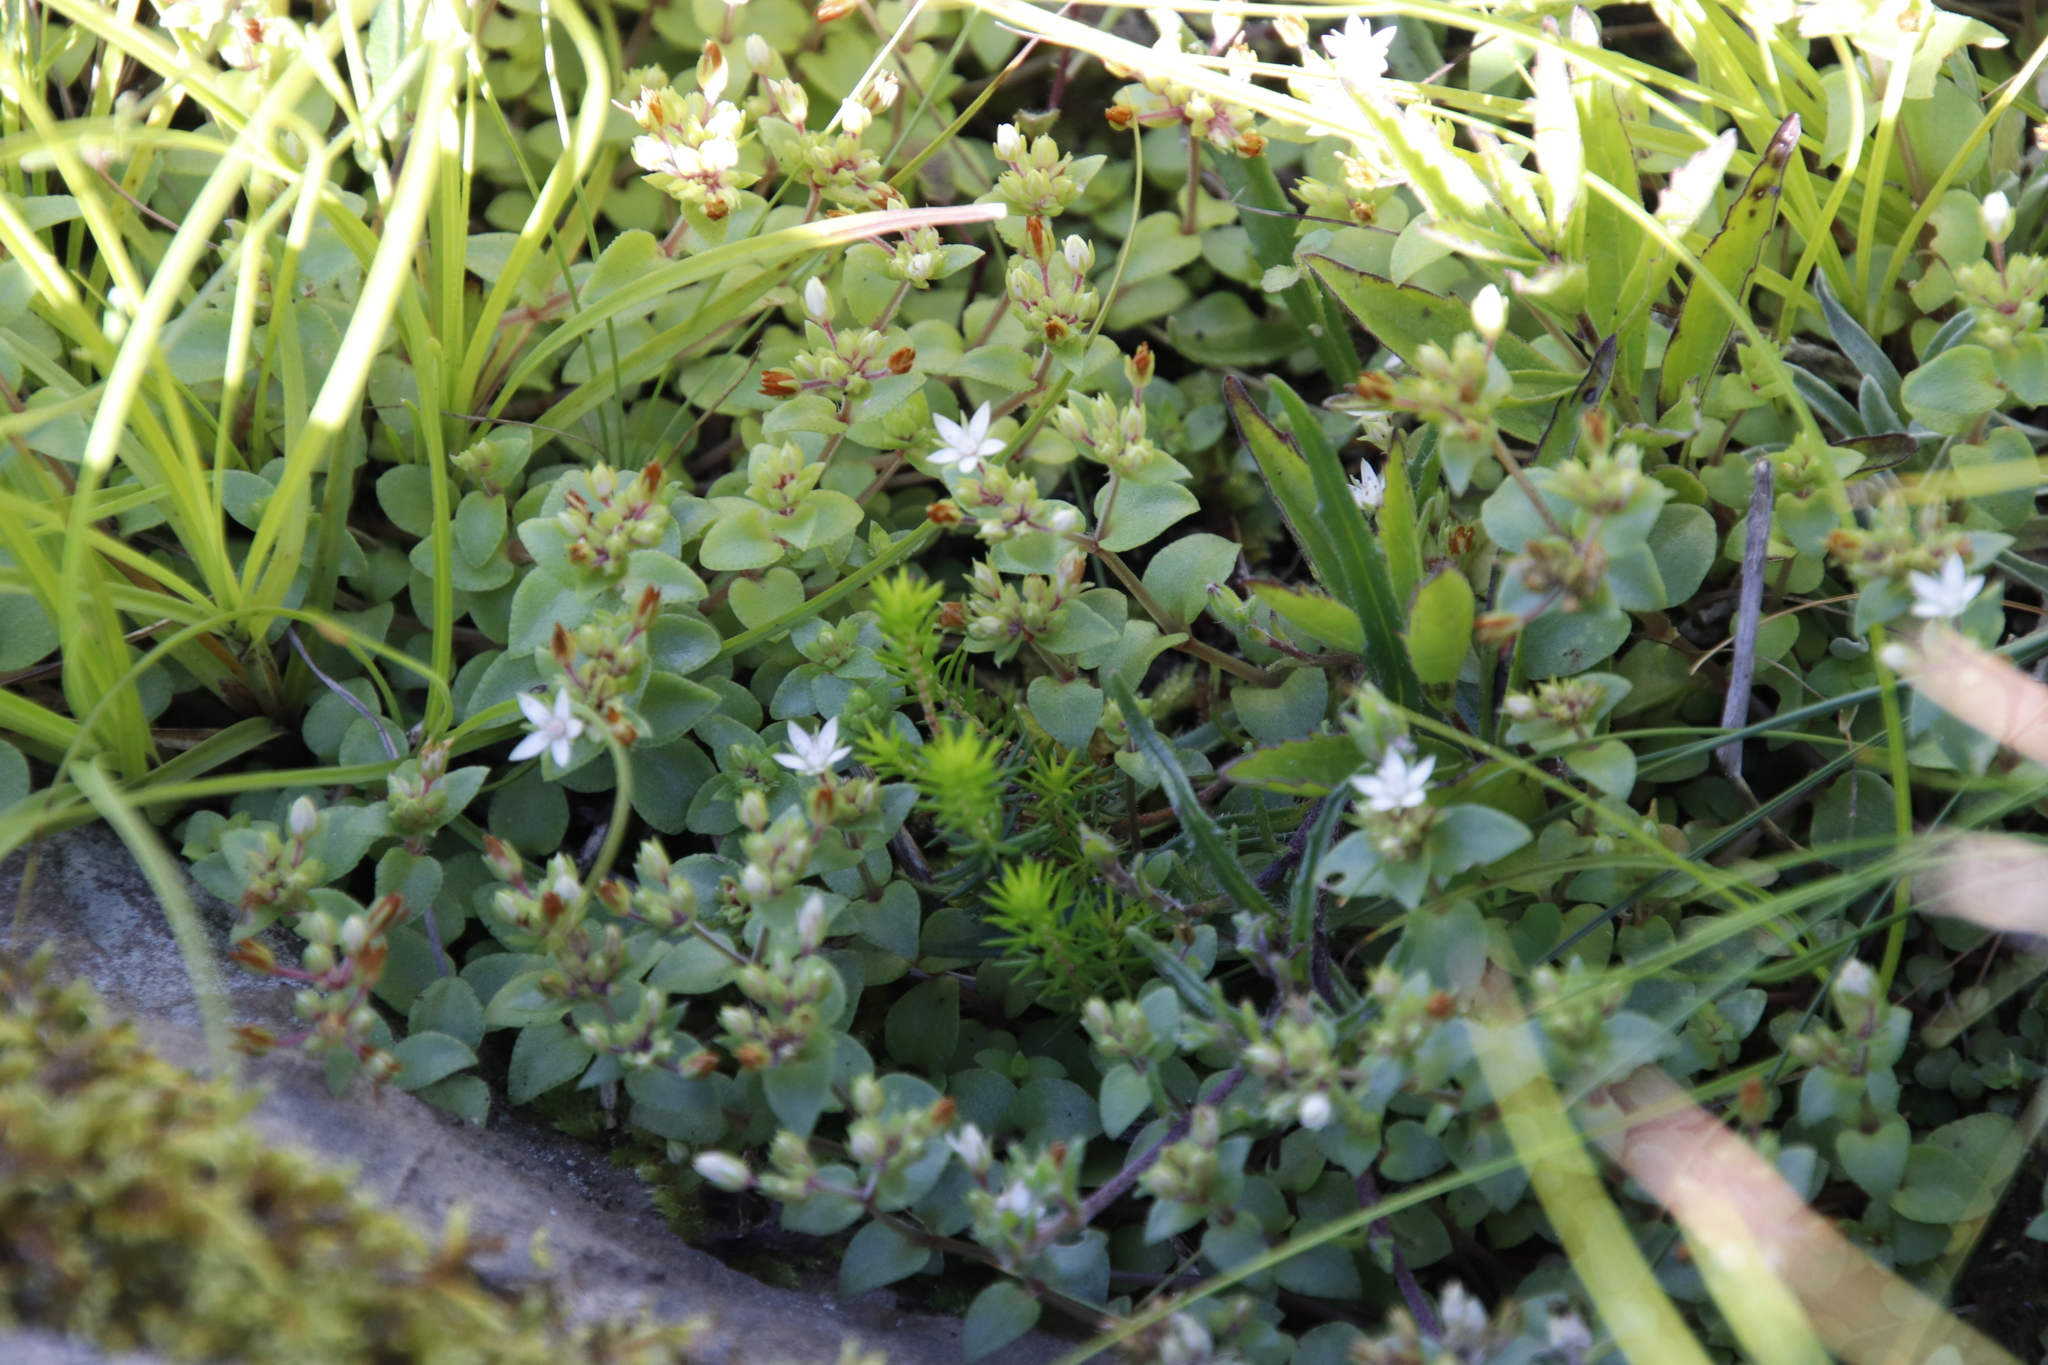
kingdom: Plantae
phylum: Tracheophyta
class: Magnoliopsida
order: Saxifragales
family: Crassulaceae
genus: Crassula
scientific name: Crassula pellucida
